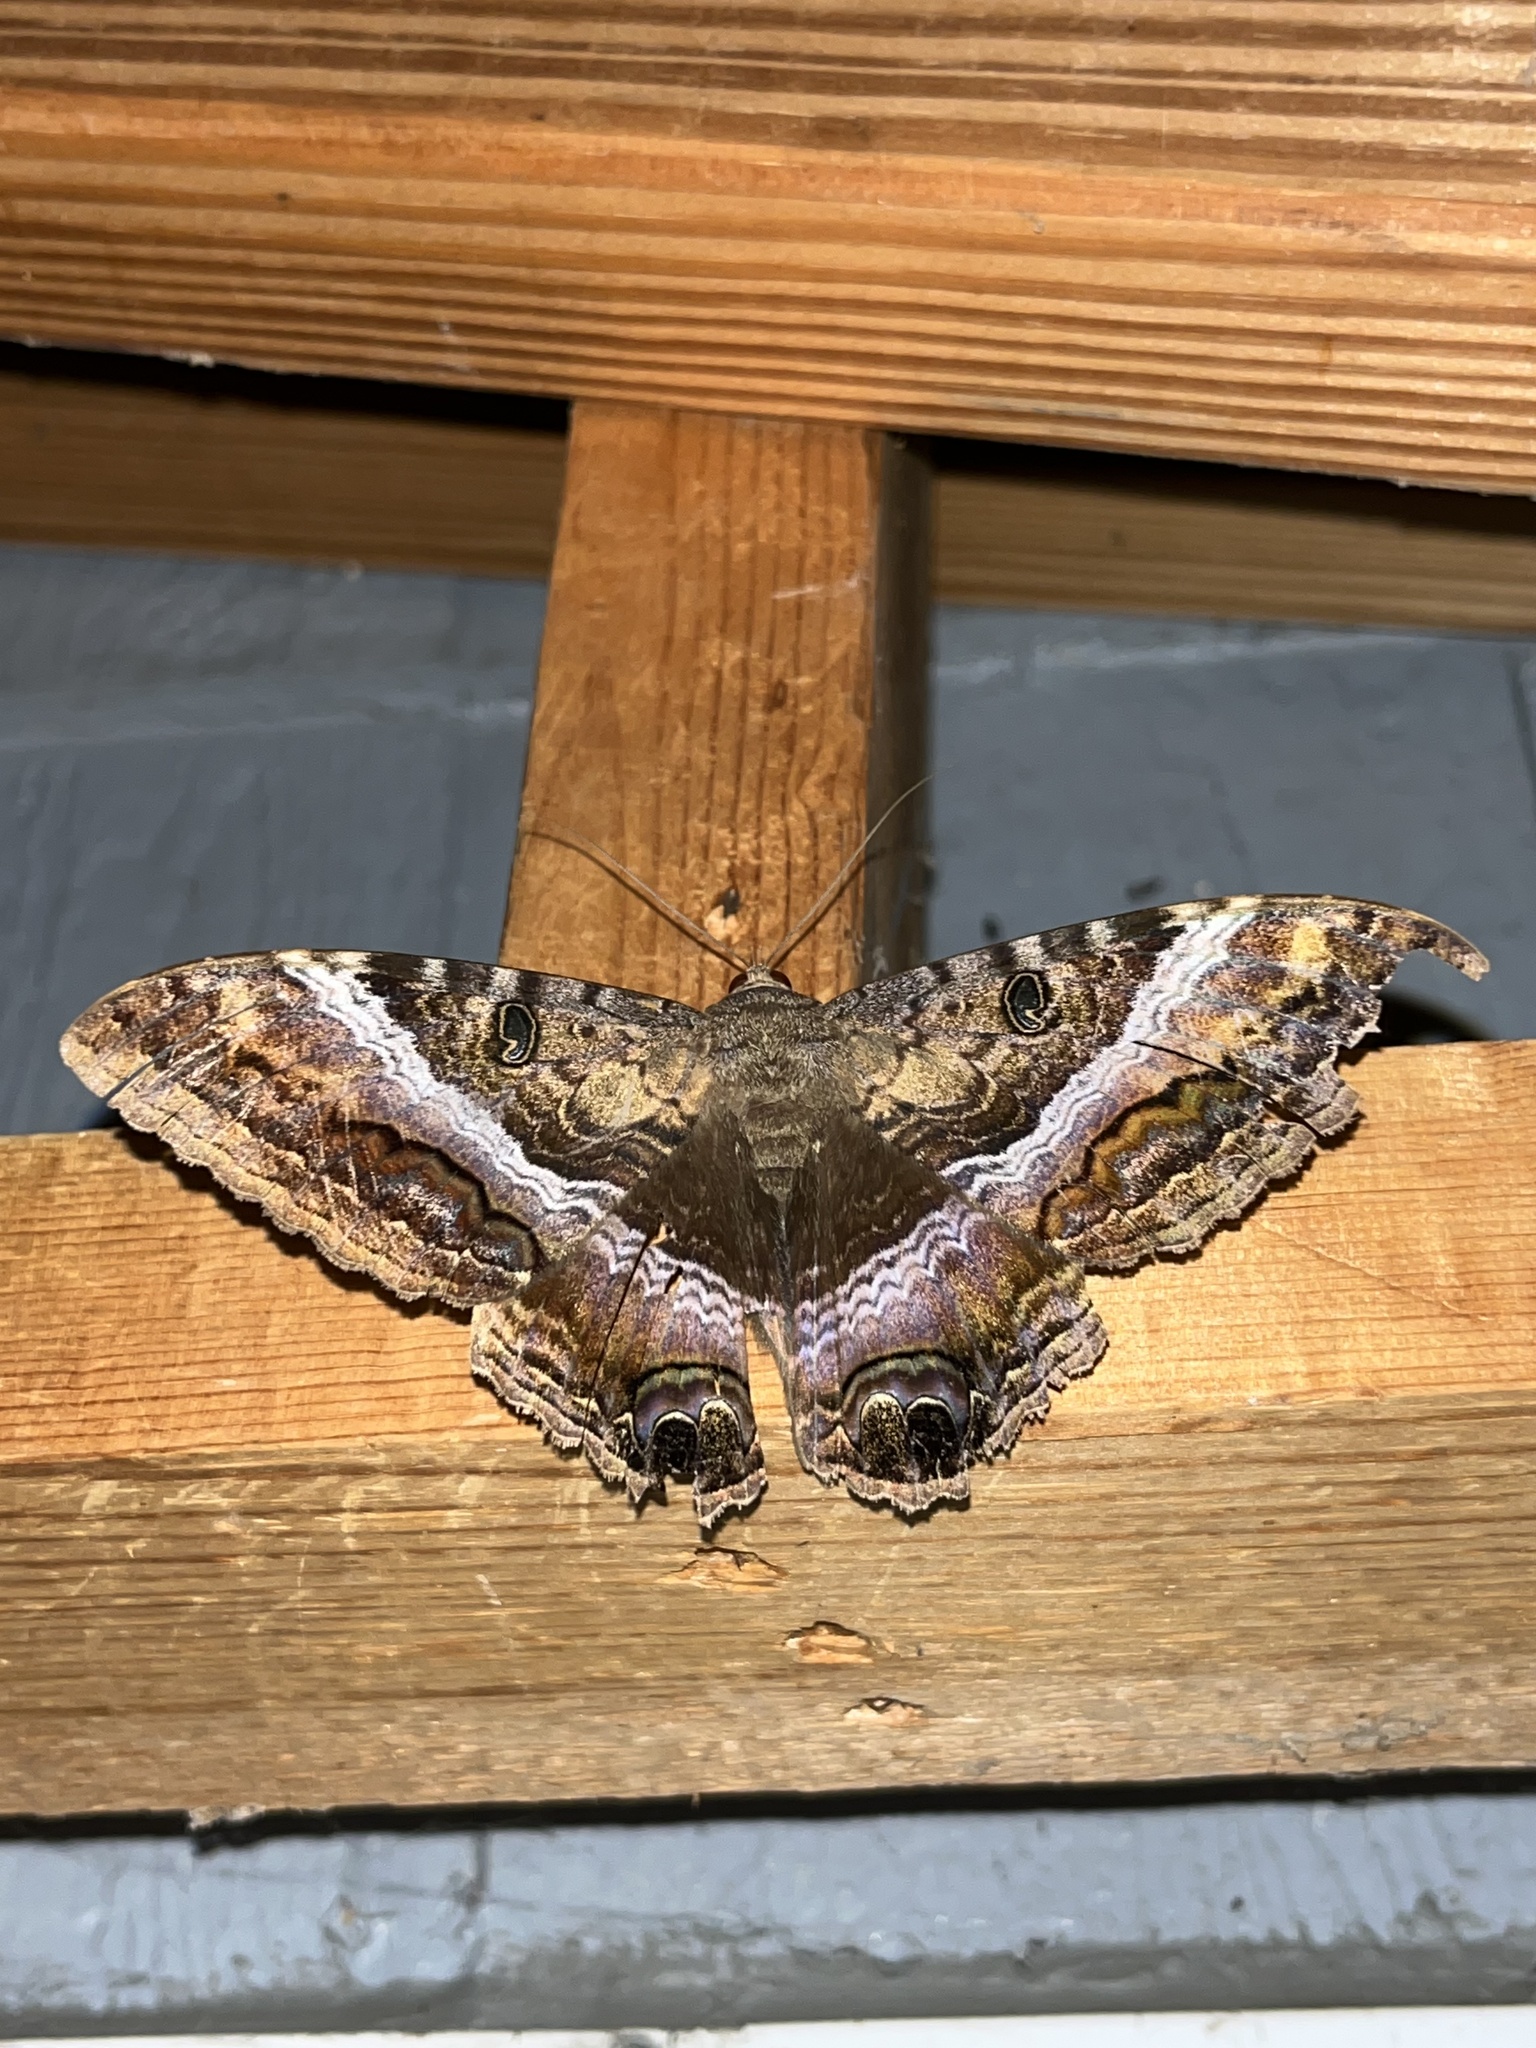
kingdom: Animalia
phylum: Arthropoda
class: Insecta
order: Lepidoptera
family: Erebidae
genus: Ascalapha
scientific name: Ascalapha odorata
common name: Black witch
